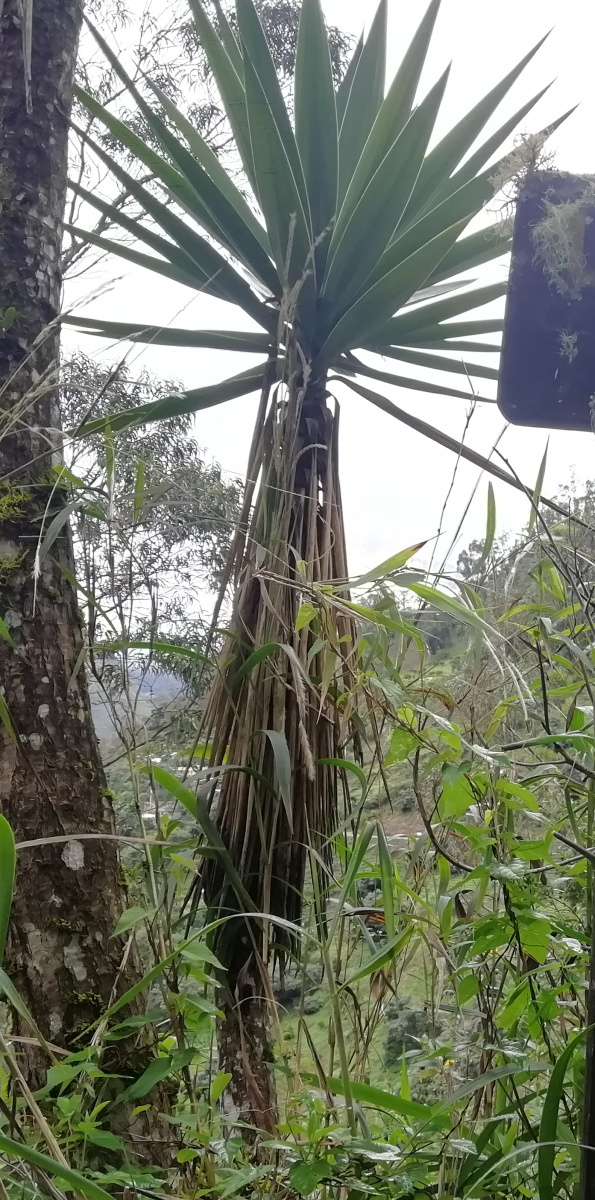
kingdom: Plantae
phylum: Tracheophyta
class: Liliopsida
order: Asparagales
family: Asparagaceae
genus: Yucca
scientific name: Yucca gigantea
